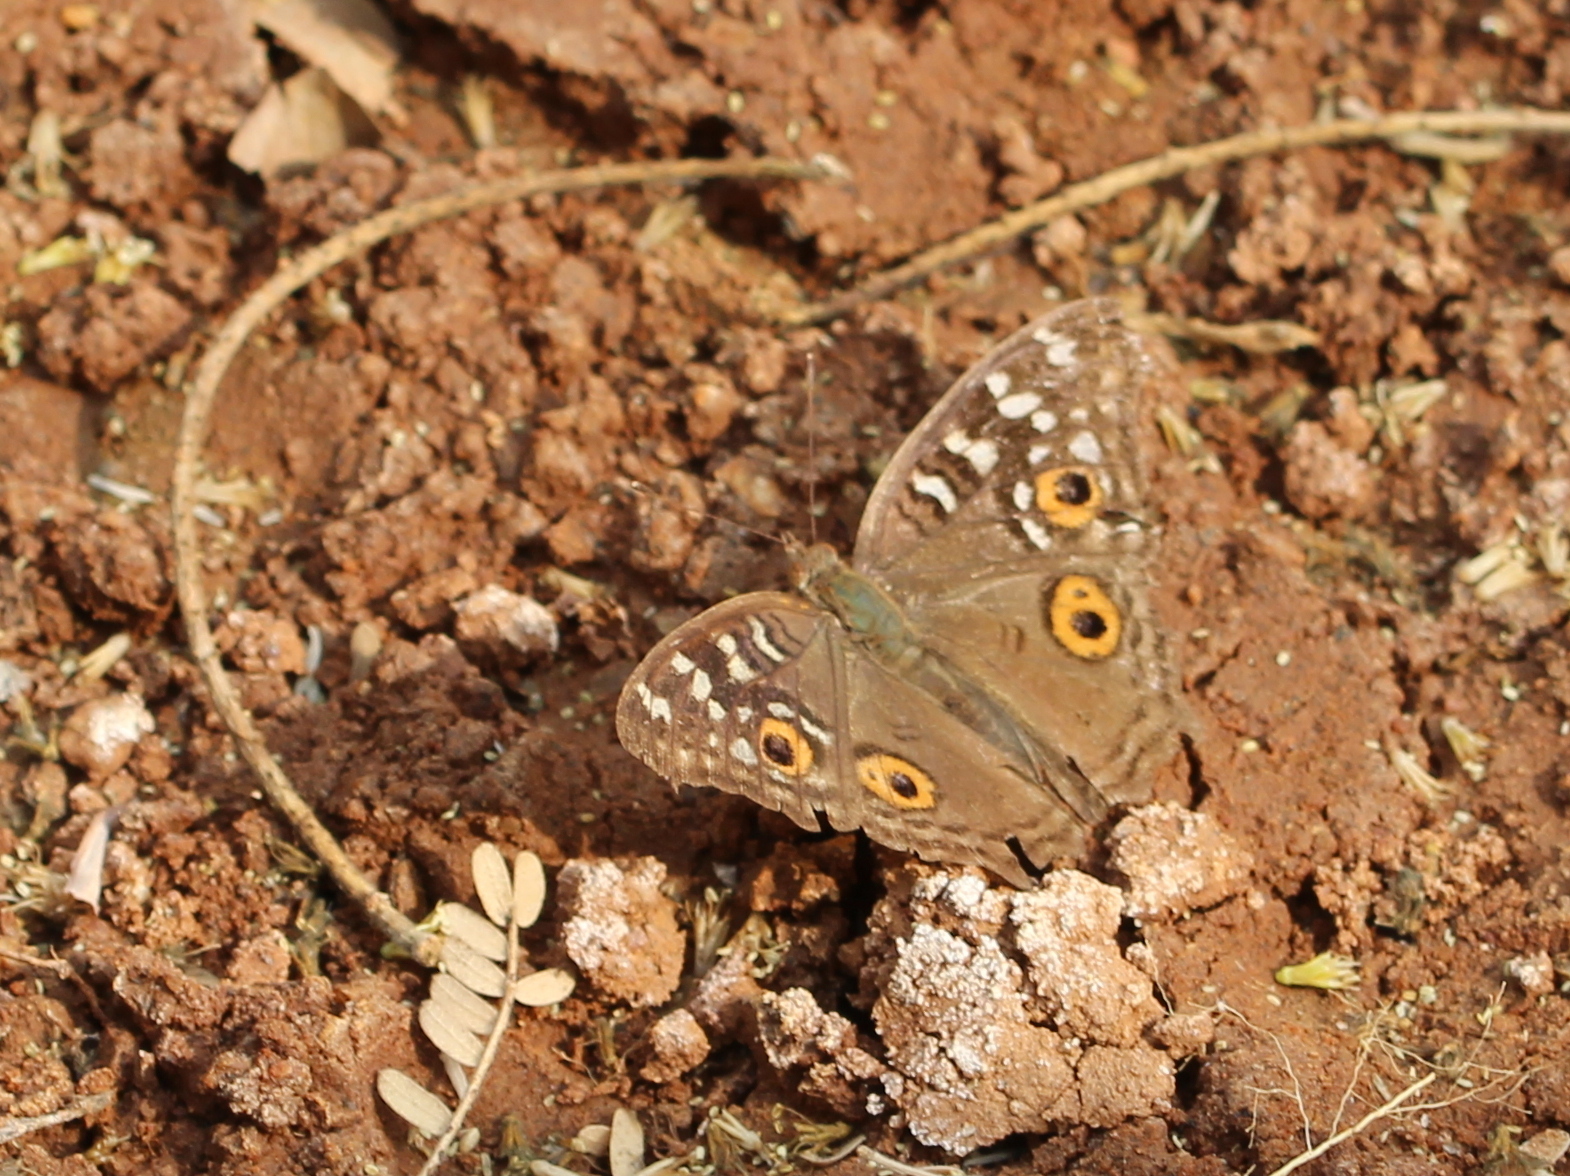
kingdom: Animalia
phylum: Arthropoda
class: Insecta
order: Lepidoptera
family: Nymphalidae
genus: Junonia
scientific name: Junonia lemonias
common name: Lemon pansy
